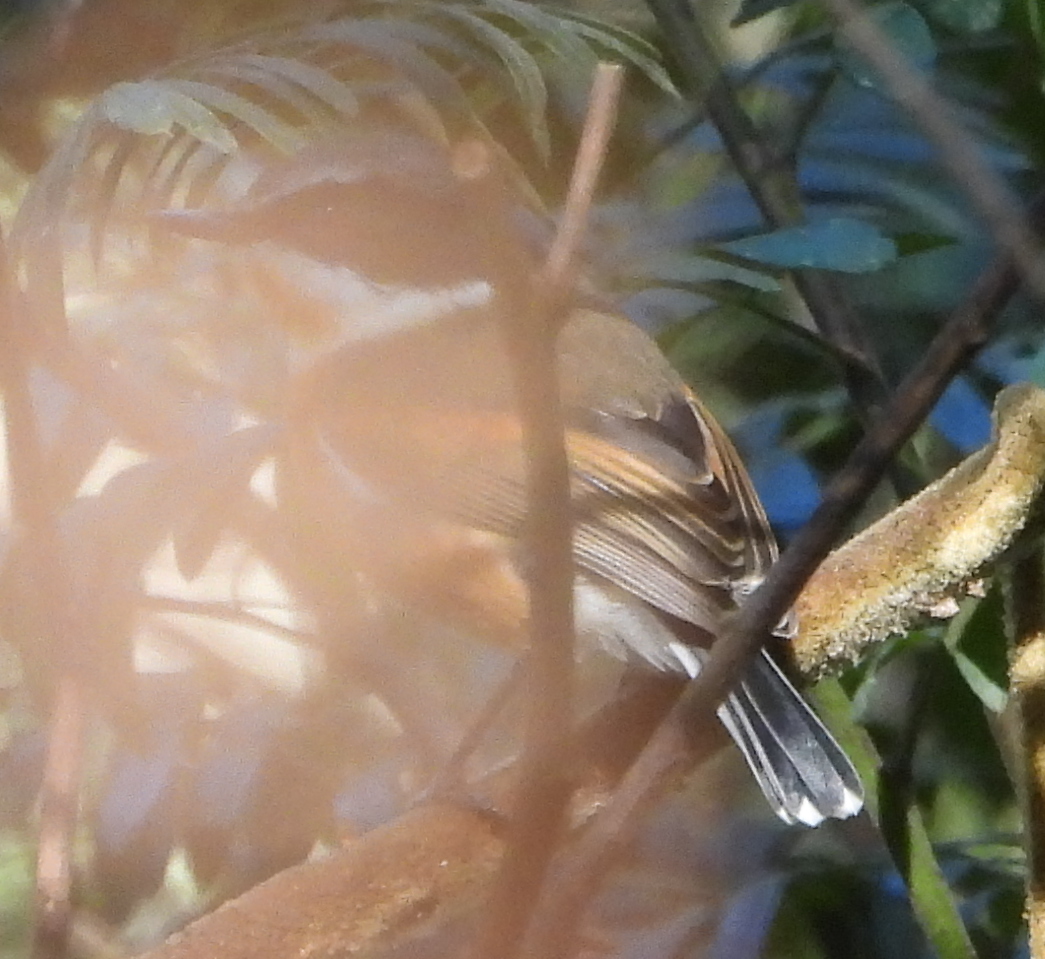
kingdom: Animalia
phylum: Chordata
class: Aves
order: Passeriformes
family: Platysteiridae
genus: Batis
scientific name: Batis capensis
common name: Cape batis
